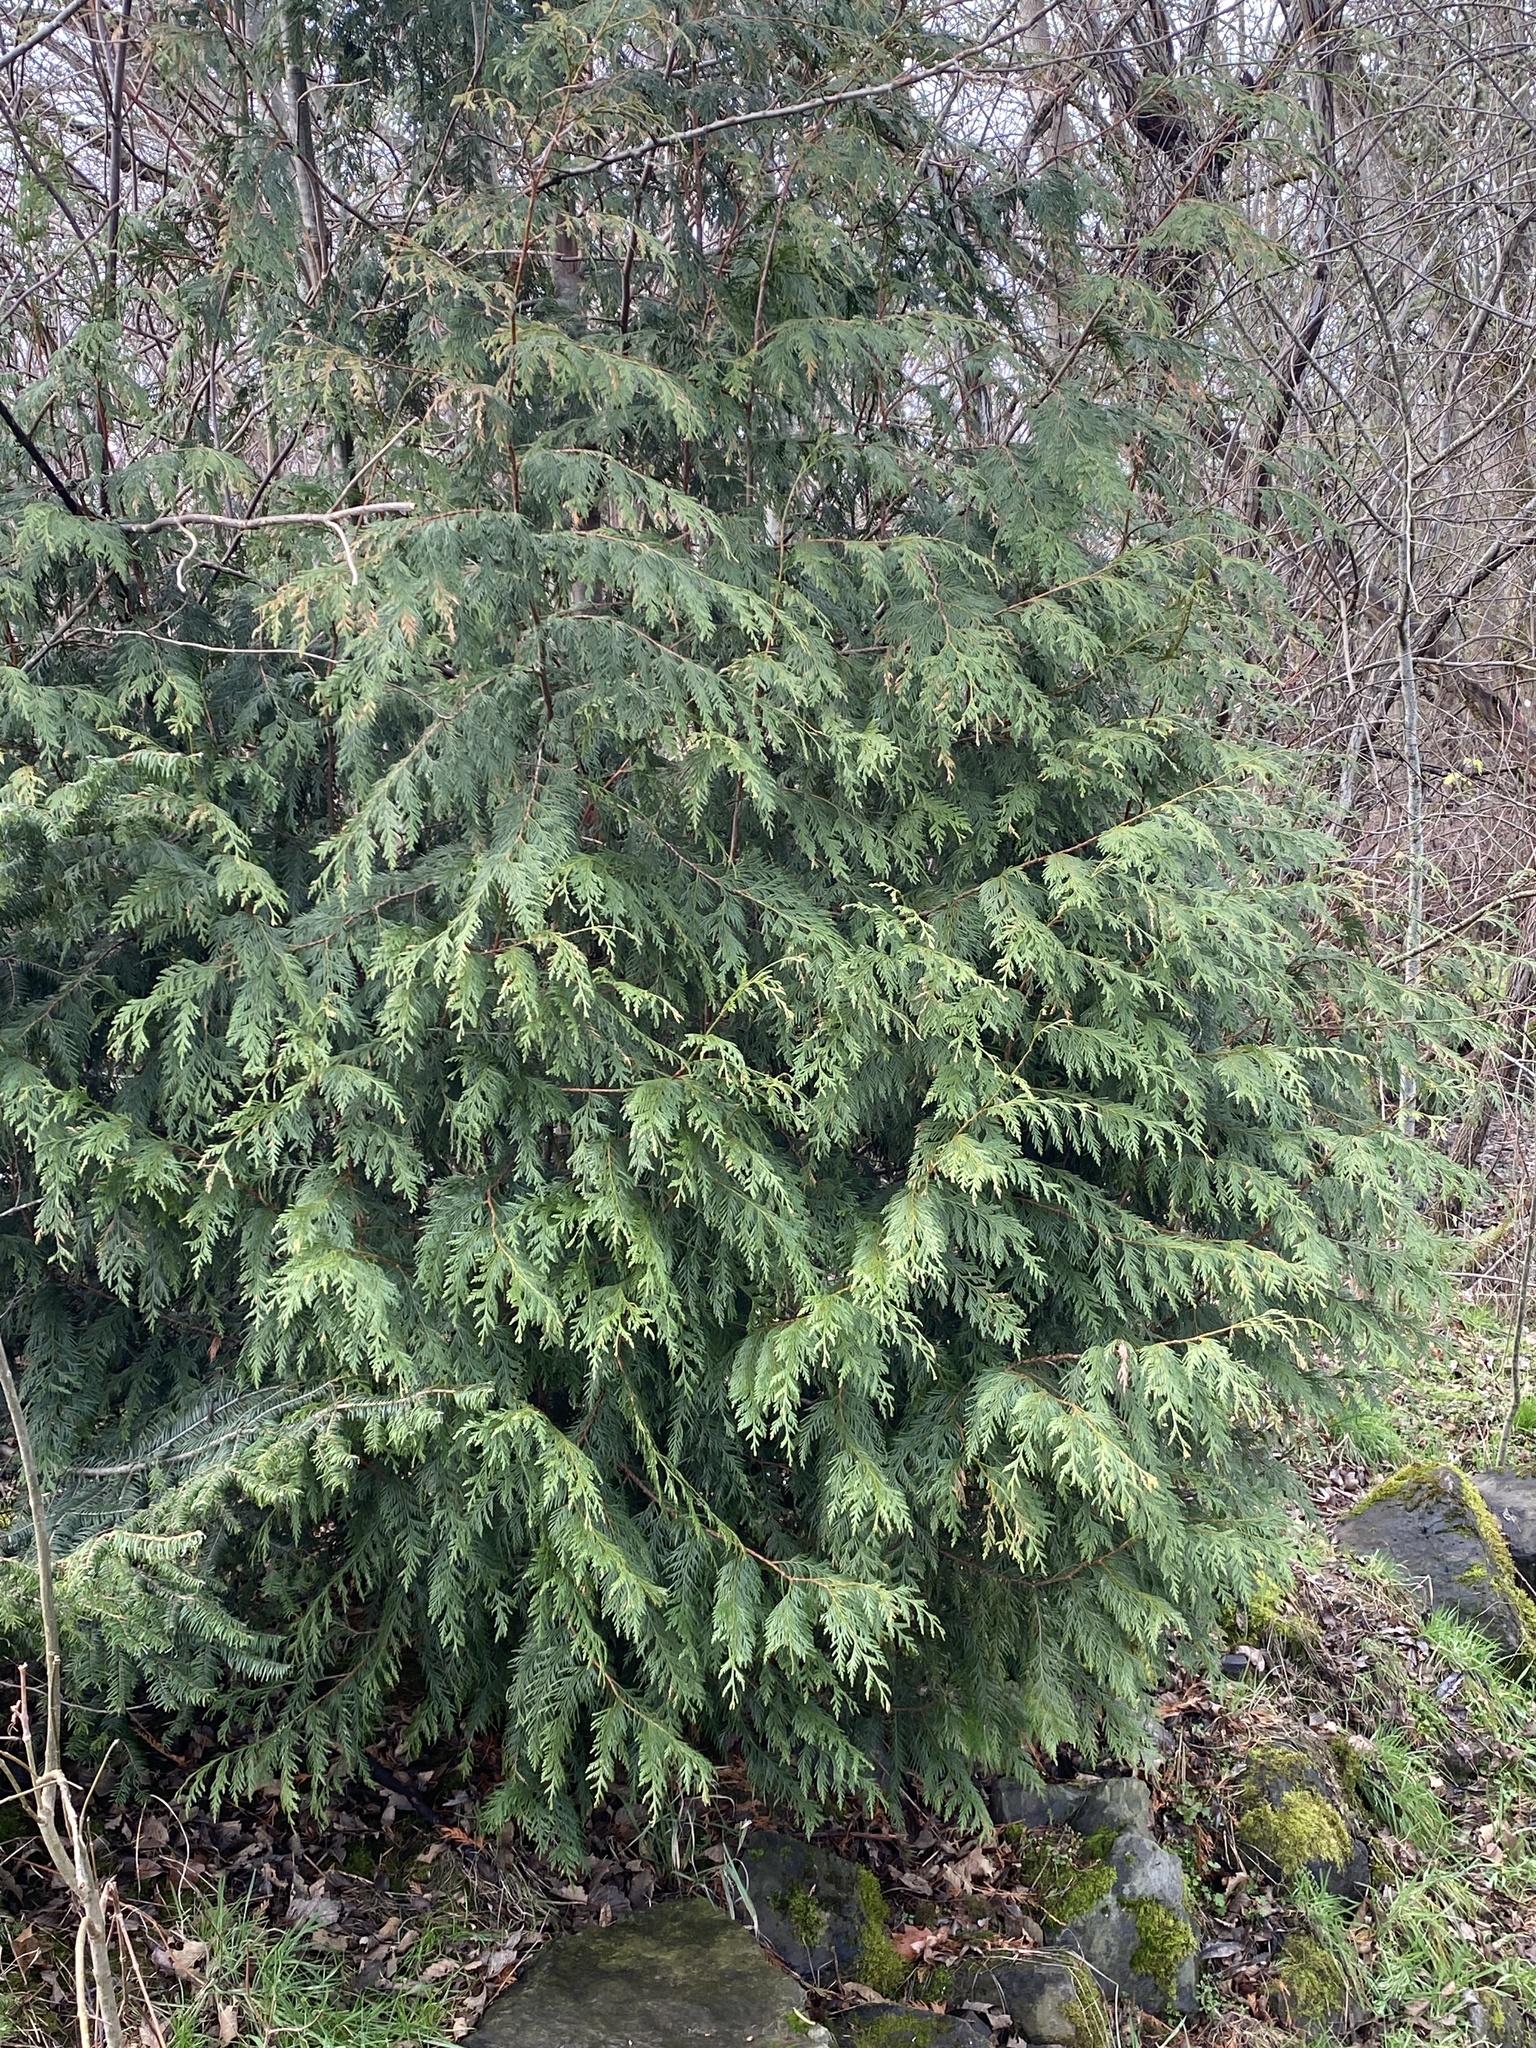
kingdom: Plantae
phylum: Tracheophyta
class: Pinopsida
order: Pinales
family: Cupressaceae
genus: Thuja
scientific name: Thuja plicata
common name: Western red-cedar
